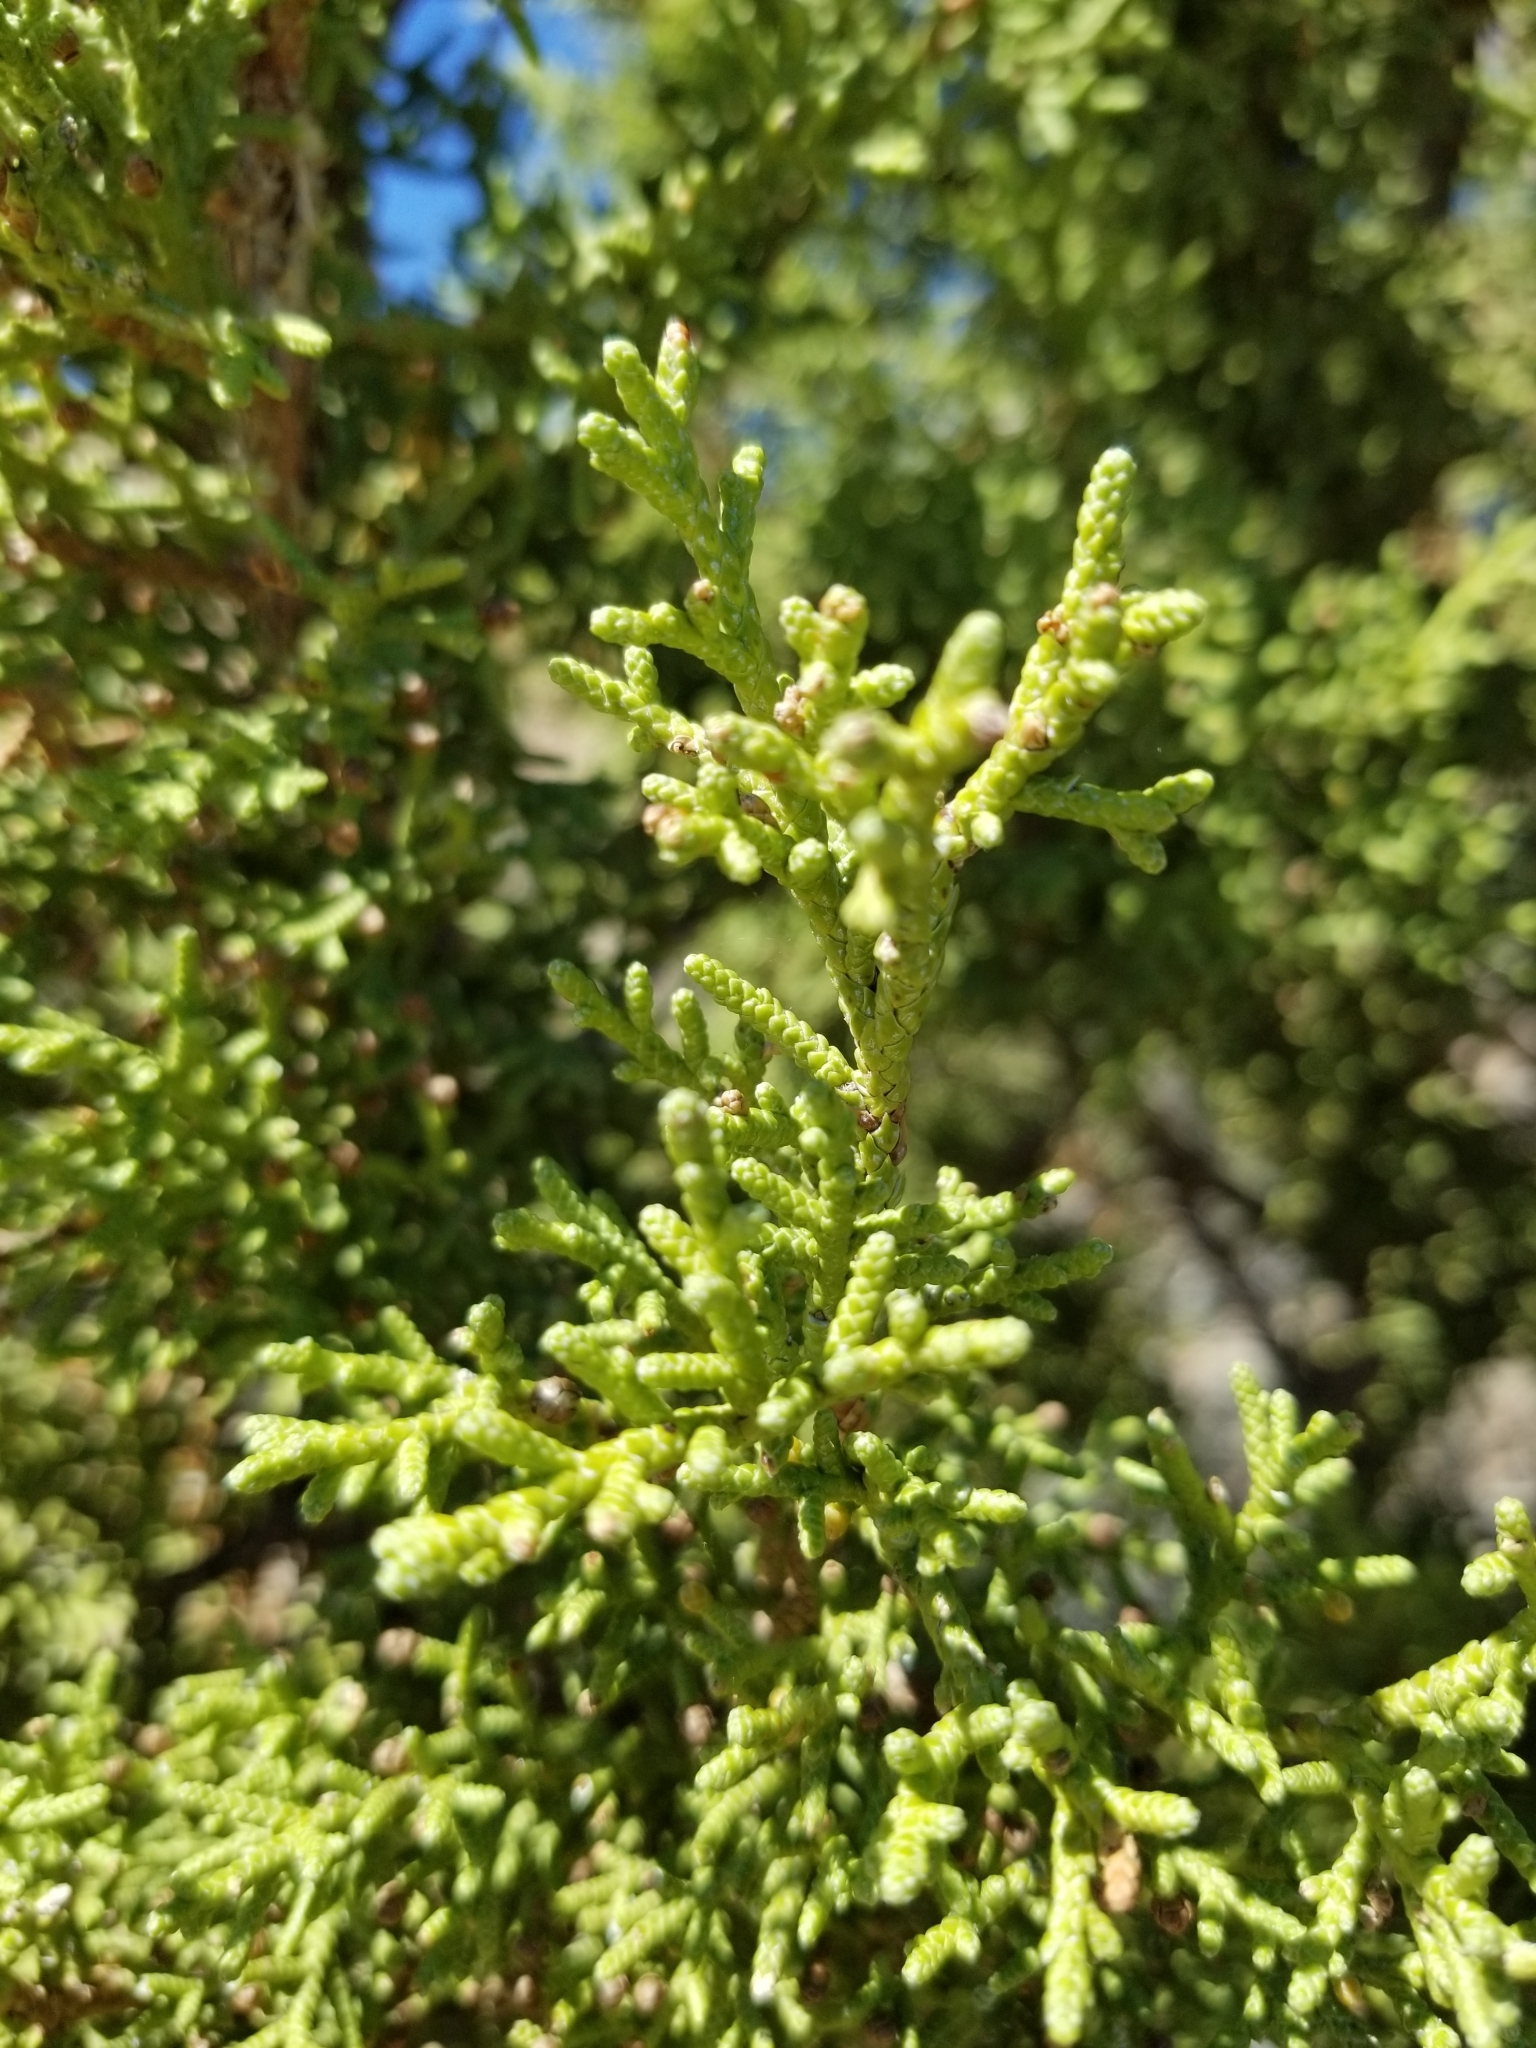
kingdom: Plantae
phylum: Tracheophyta
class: Pinopsida
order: Pinales
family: Cupressaceae
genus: Juniperus
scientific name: Juniperus osteosperma
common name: Utah juniper
